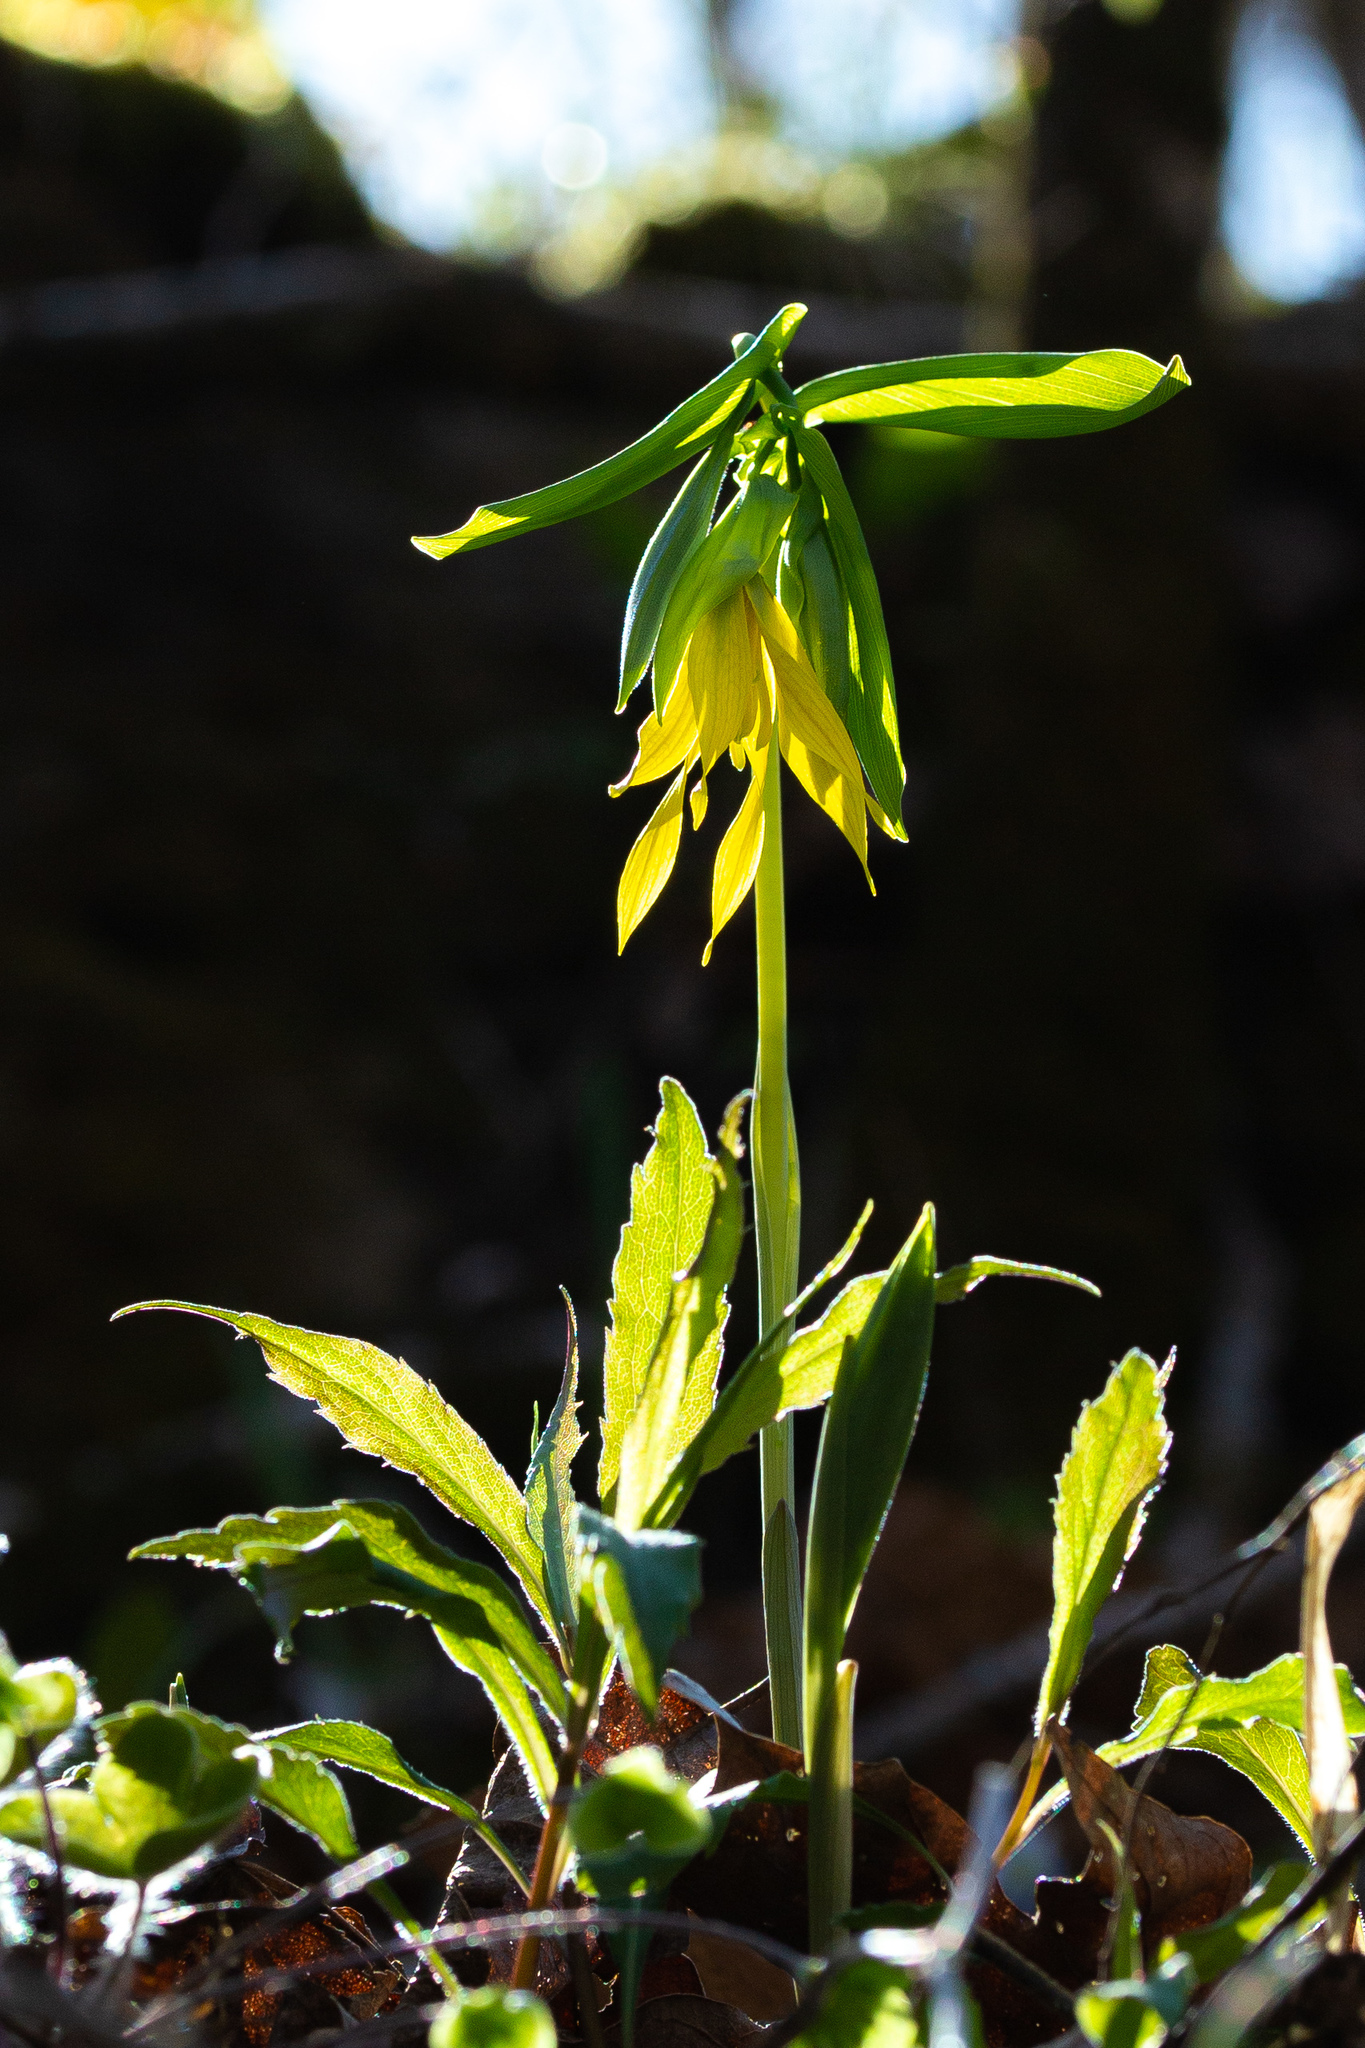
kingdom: Plantae
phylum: Tracheophyta
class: Liliopsida
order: Liliales
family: Colchicaceae
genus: Uvularia
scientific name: Uvularia grandiflora
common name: Bellwort
